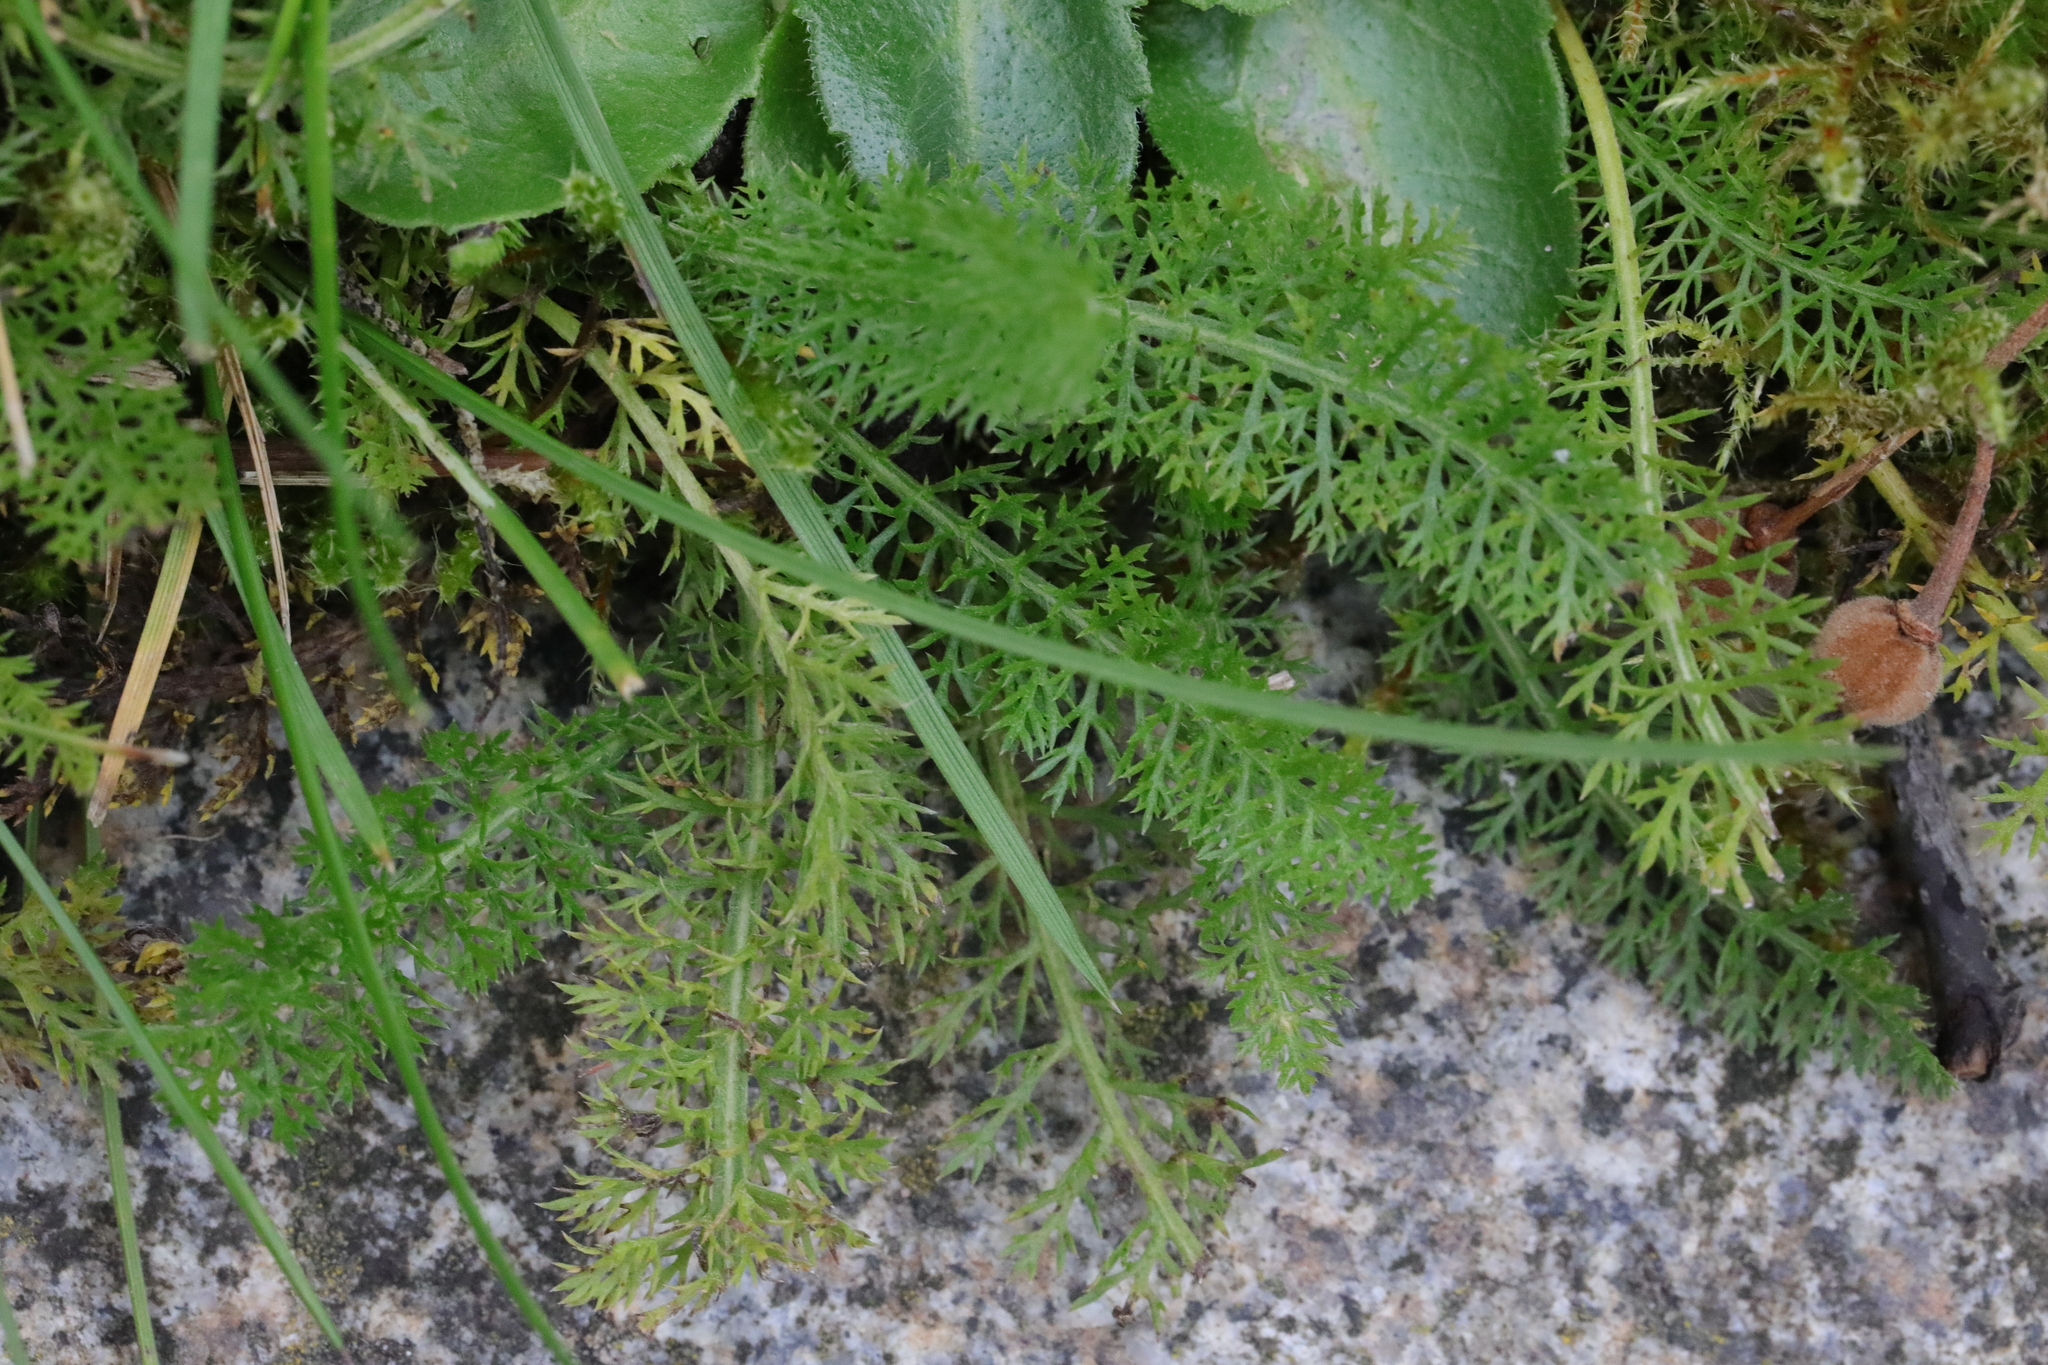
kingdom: Plantae
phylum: Tracheophyta
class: Magnoliopsida
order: Asterales
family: Asteraceae
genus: Achillea
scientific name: Achillea millefolium
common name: Yarrow
